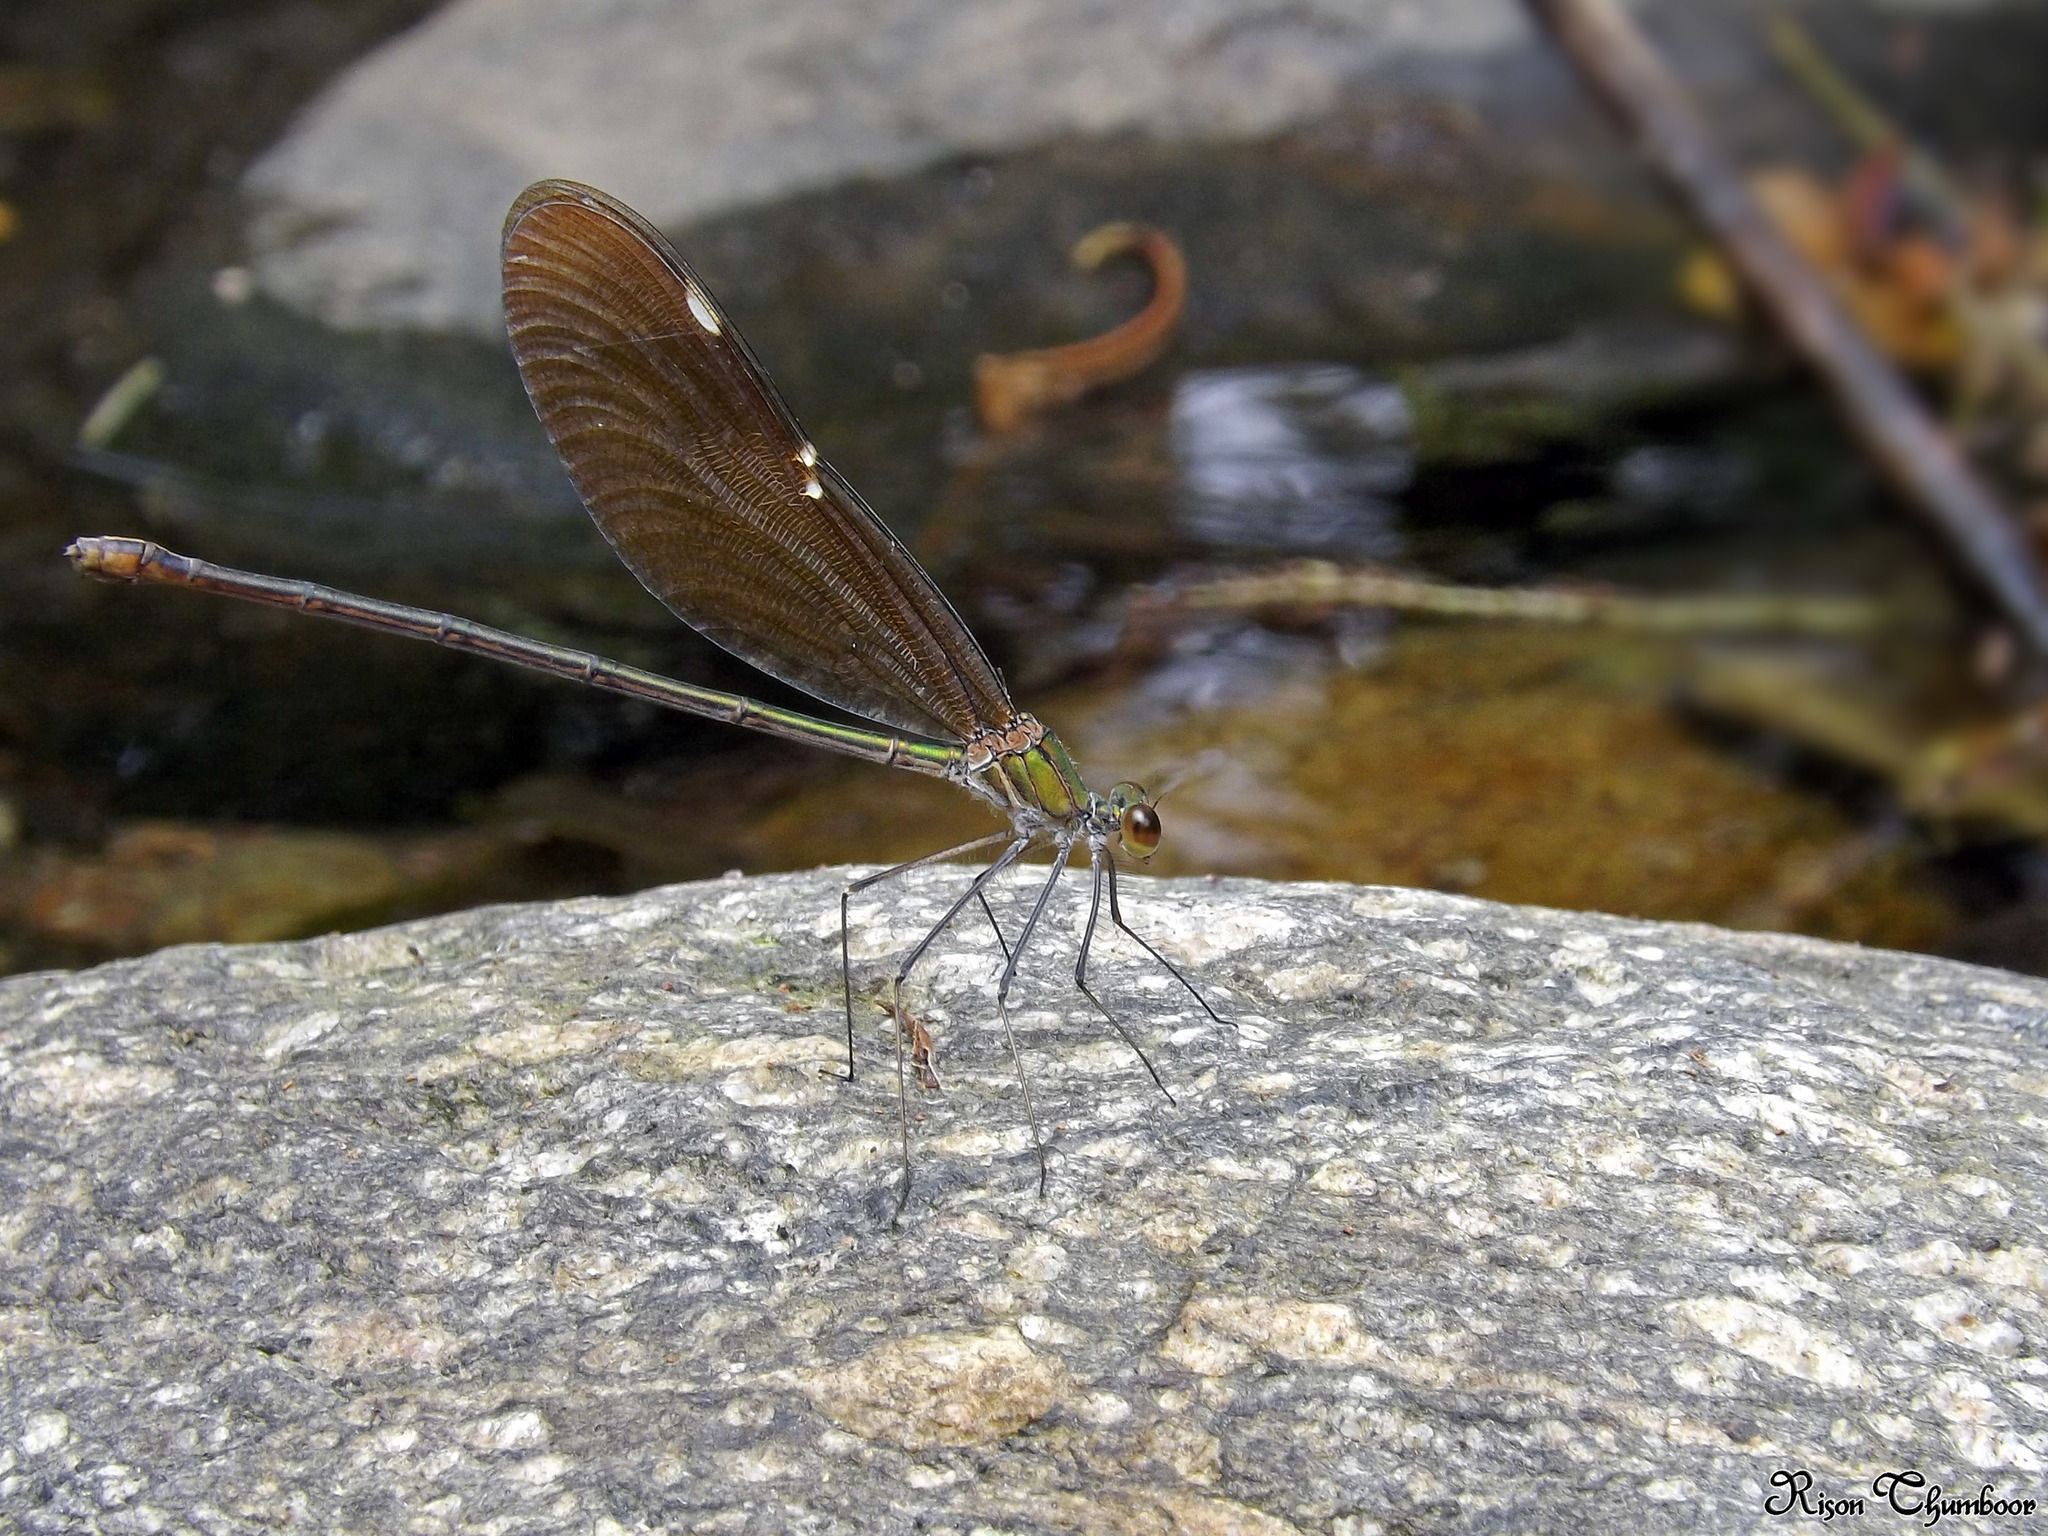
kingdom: Animalia
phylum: Arthropoda
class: Insecta
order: Odonata
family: Calopterygidae
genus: Neurobasis
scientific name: Neurobasis chinensis
